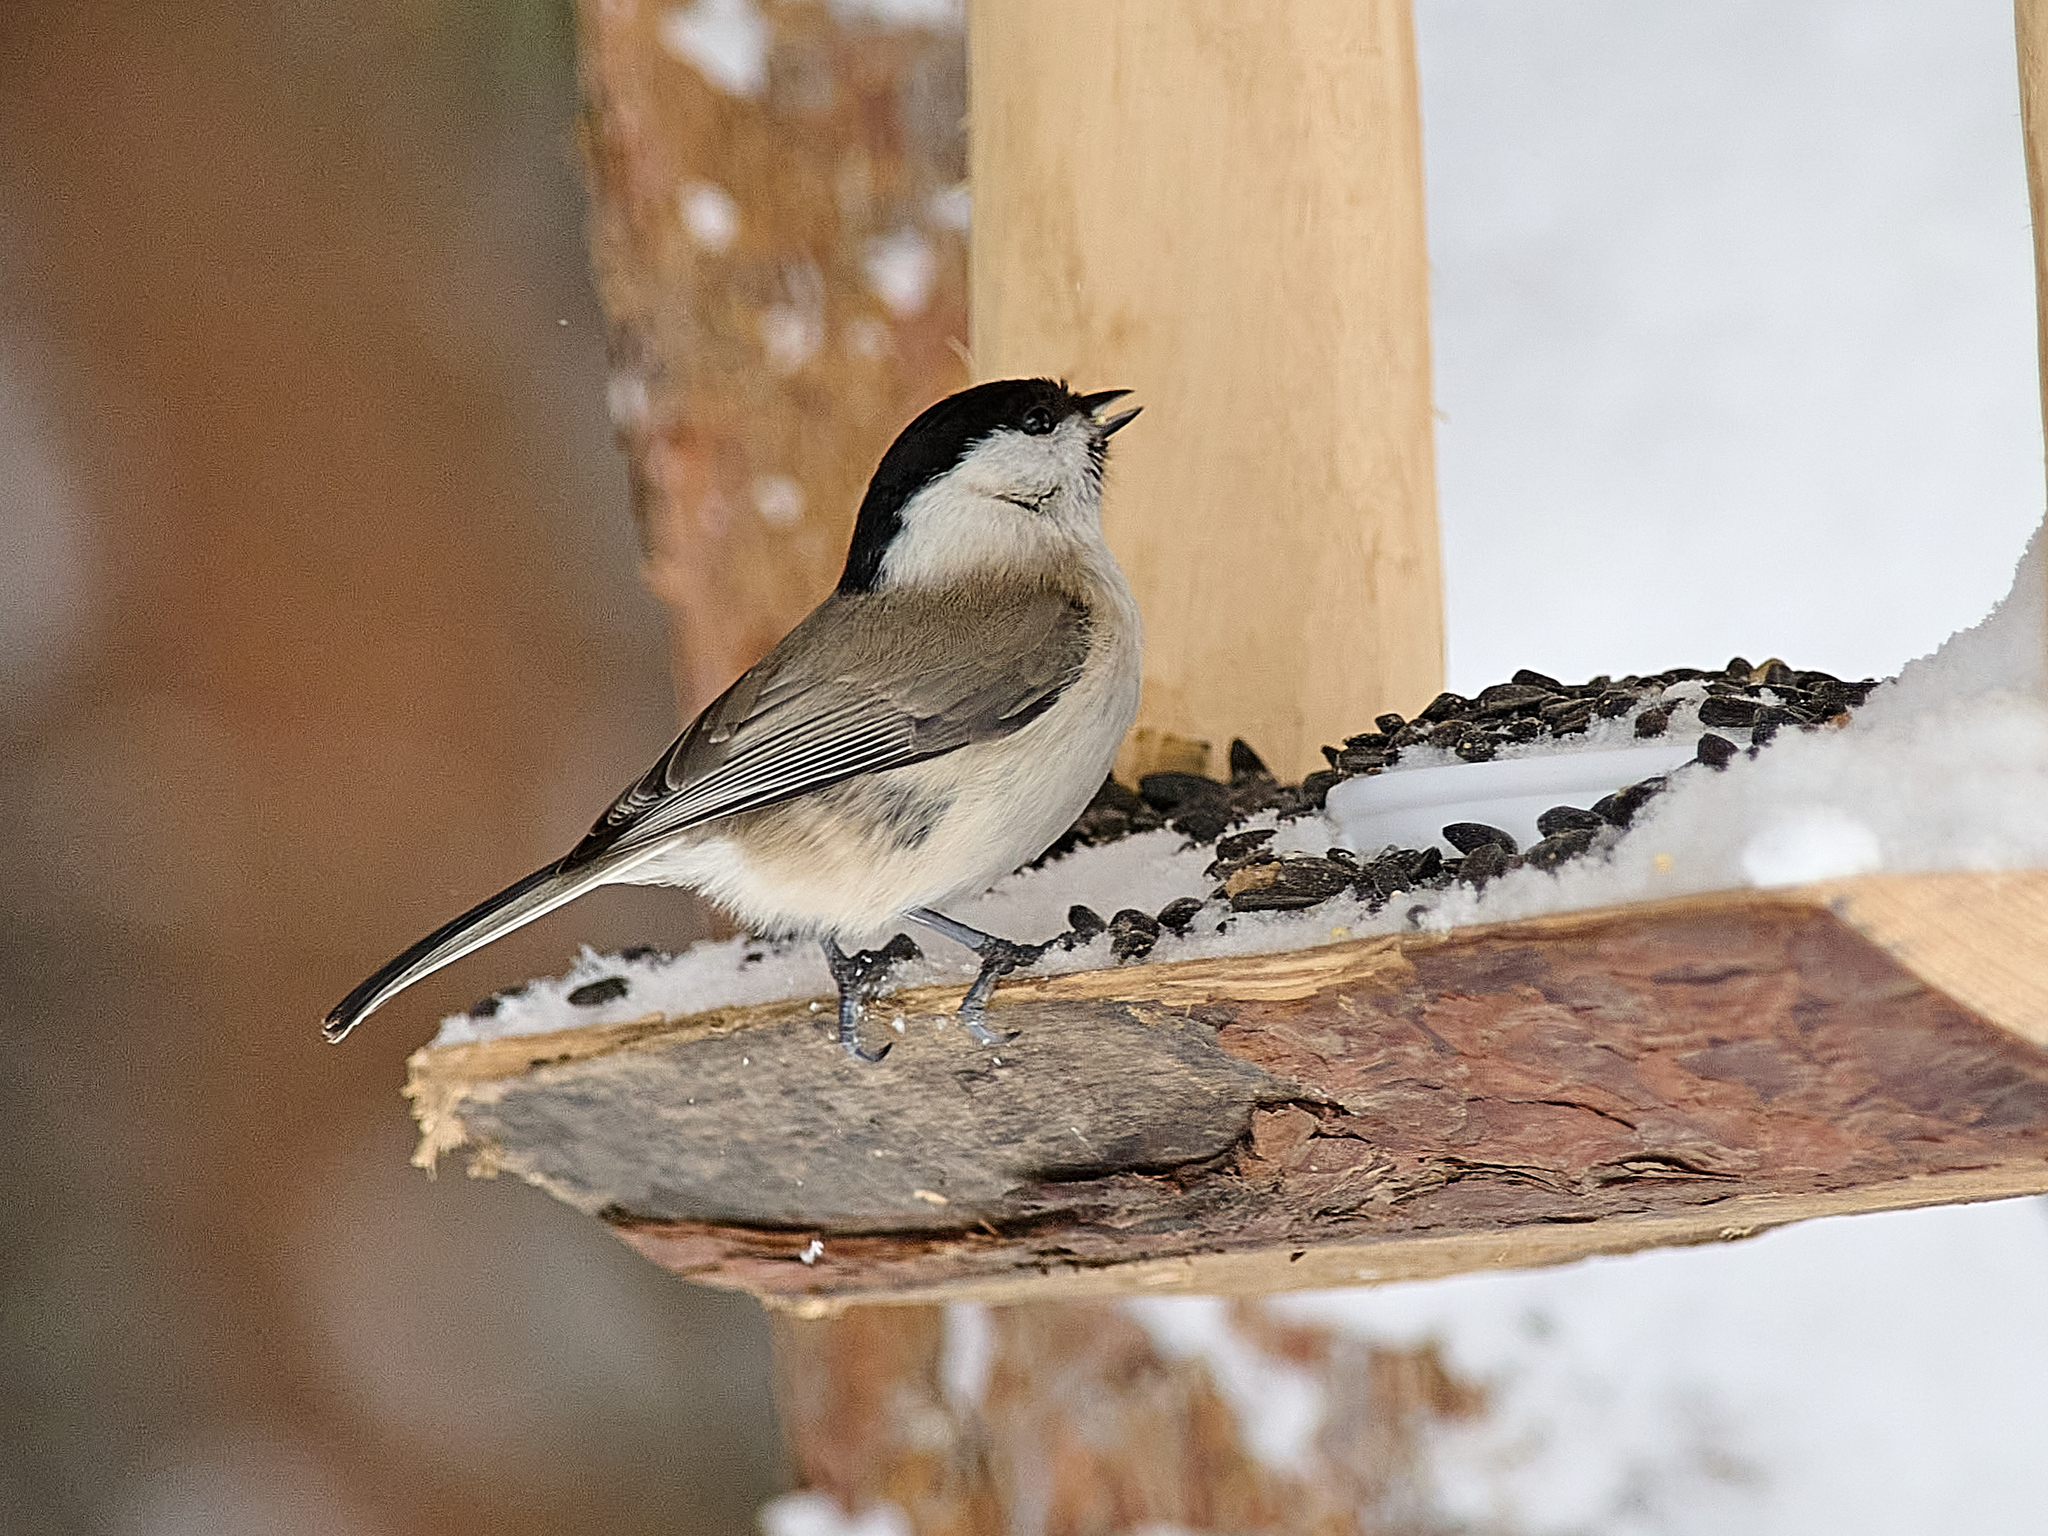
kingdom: Animalia
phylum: Chordata
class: Aves
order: Passeriformes
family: Paridae
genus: Poecile
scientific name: Poecile palustris
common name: Marsh tit
